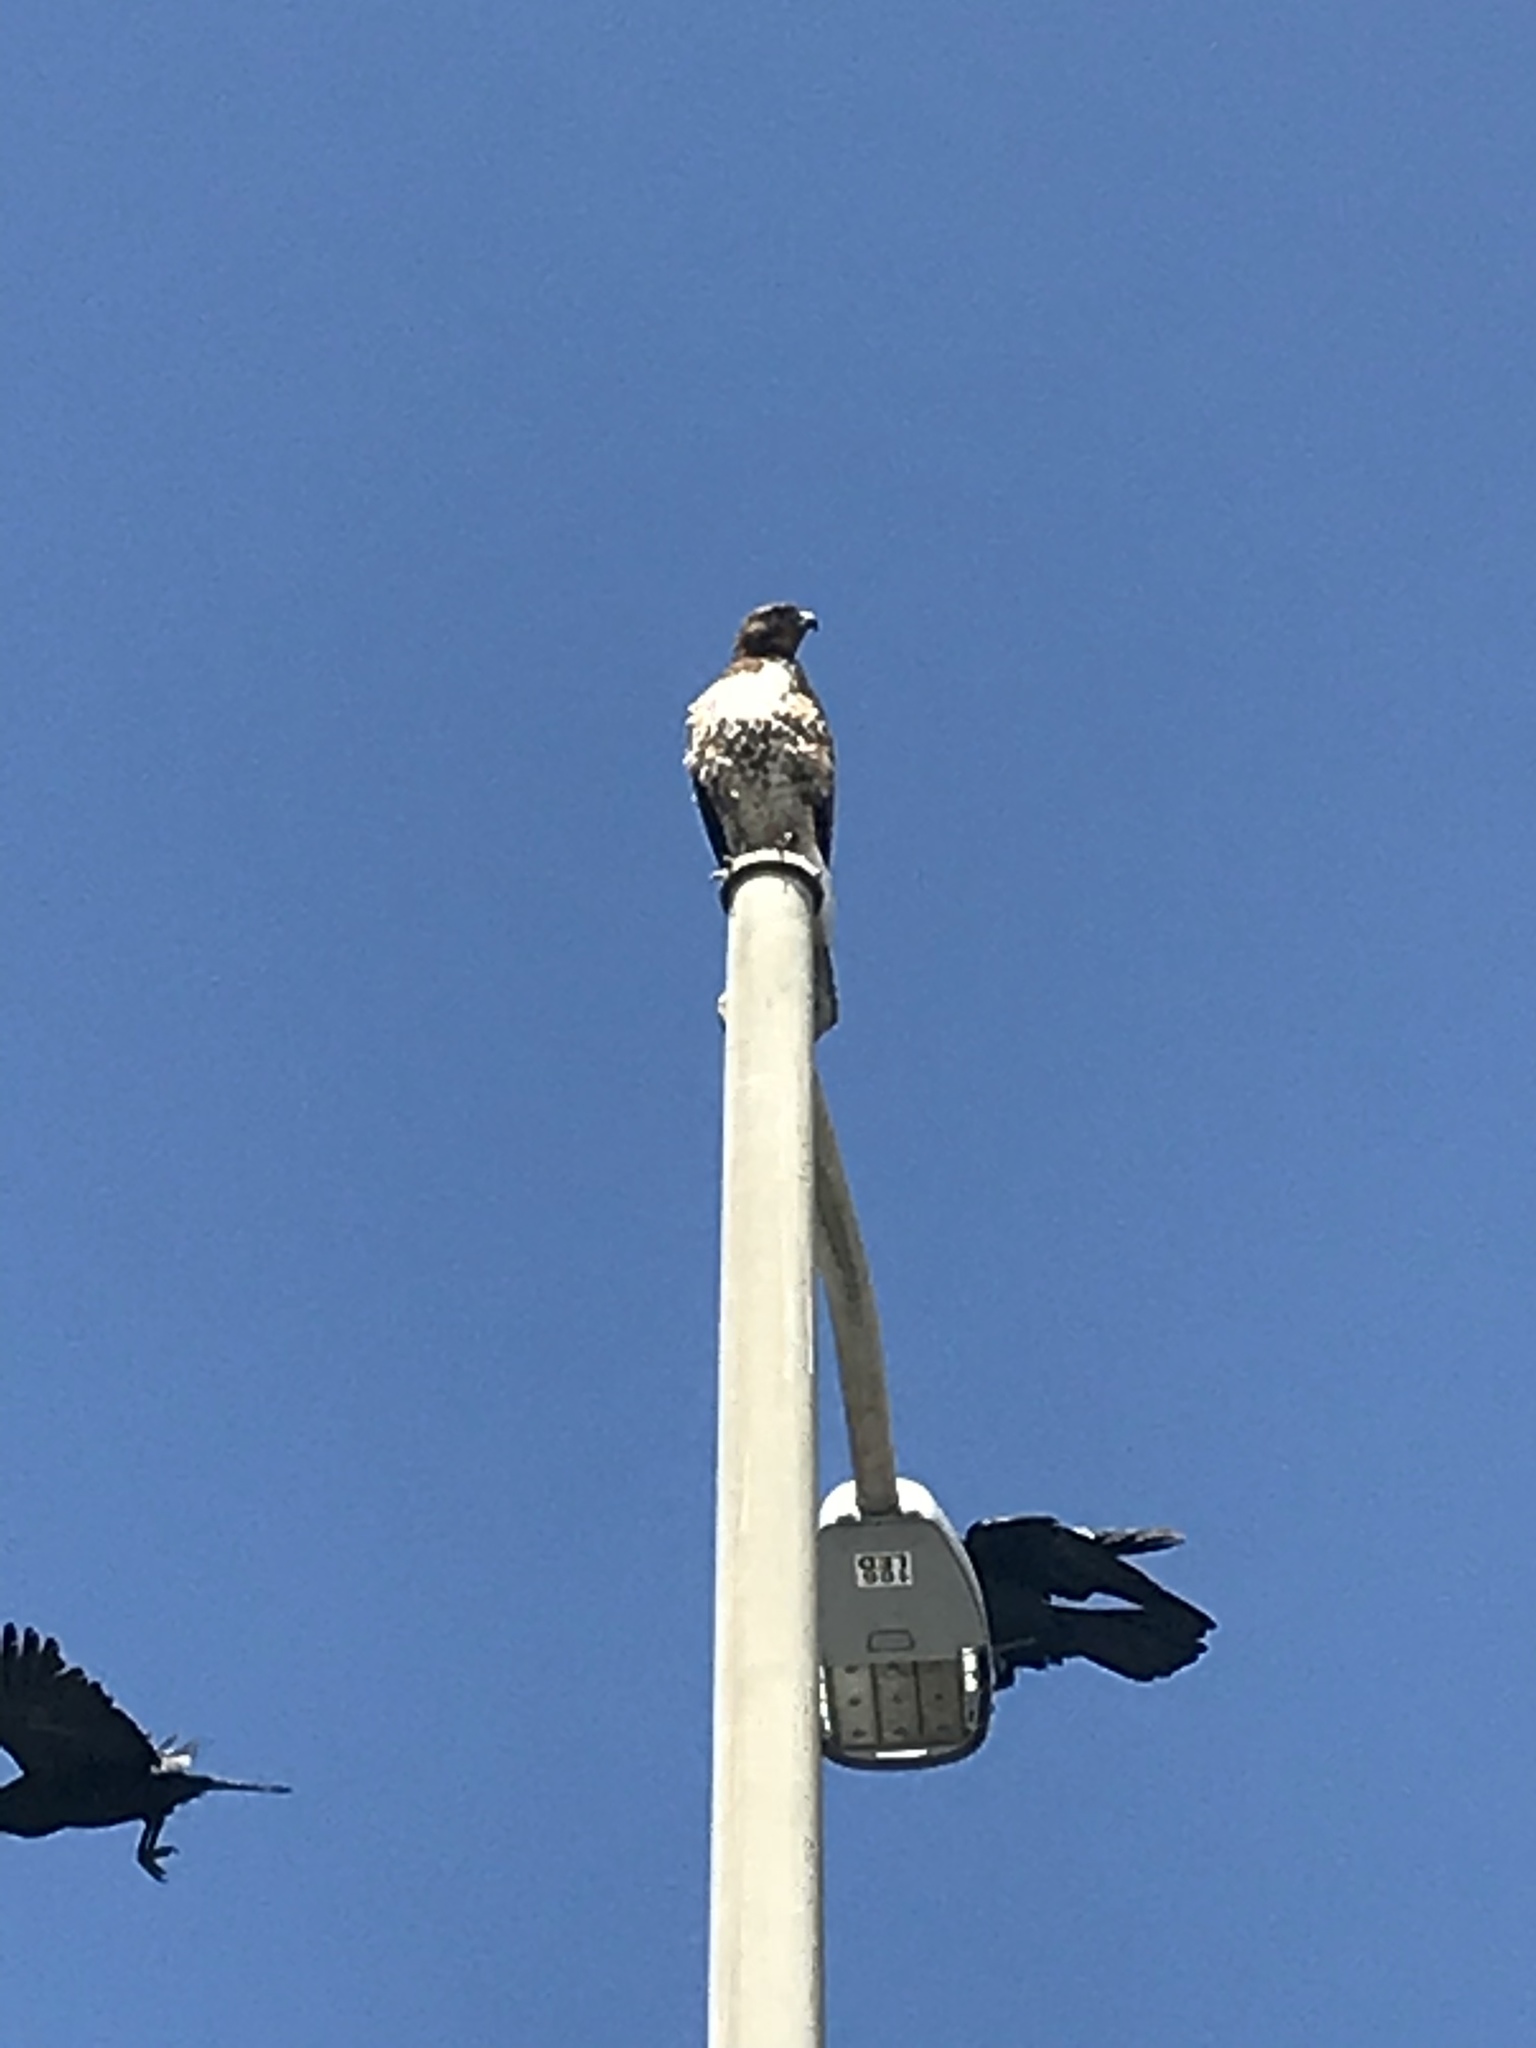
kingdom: Animalia
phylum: Chordata
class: Aves
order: Accipitriformes
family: Accipitridae
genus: Buteo
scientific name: Buteo jamaicensis
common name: Red-tailed hawk
